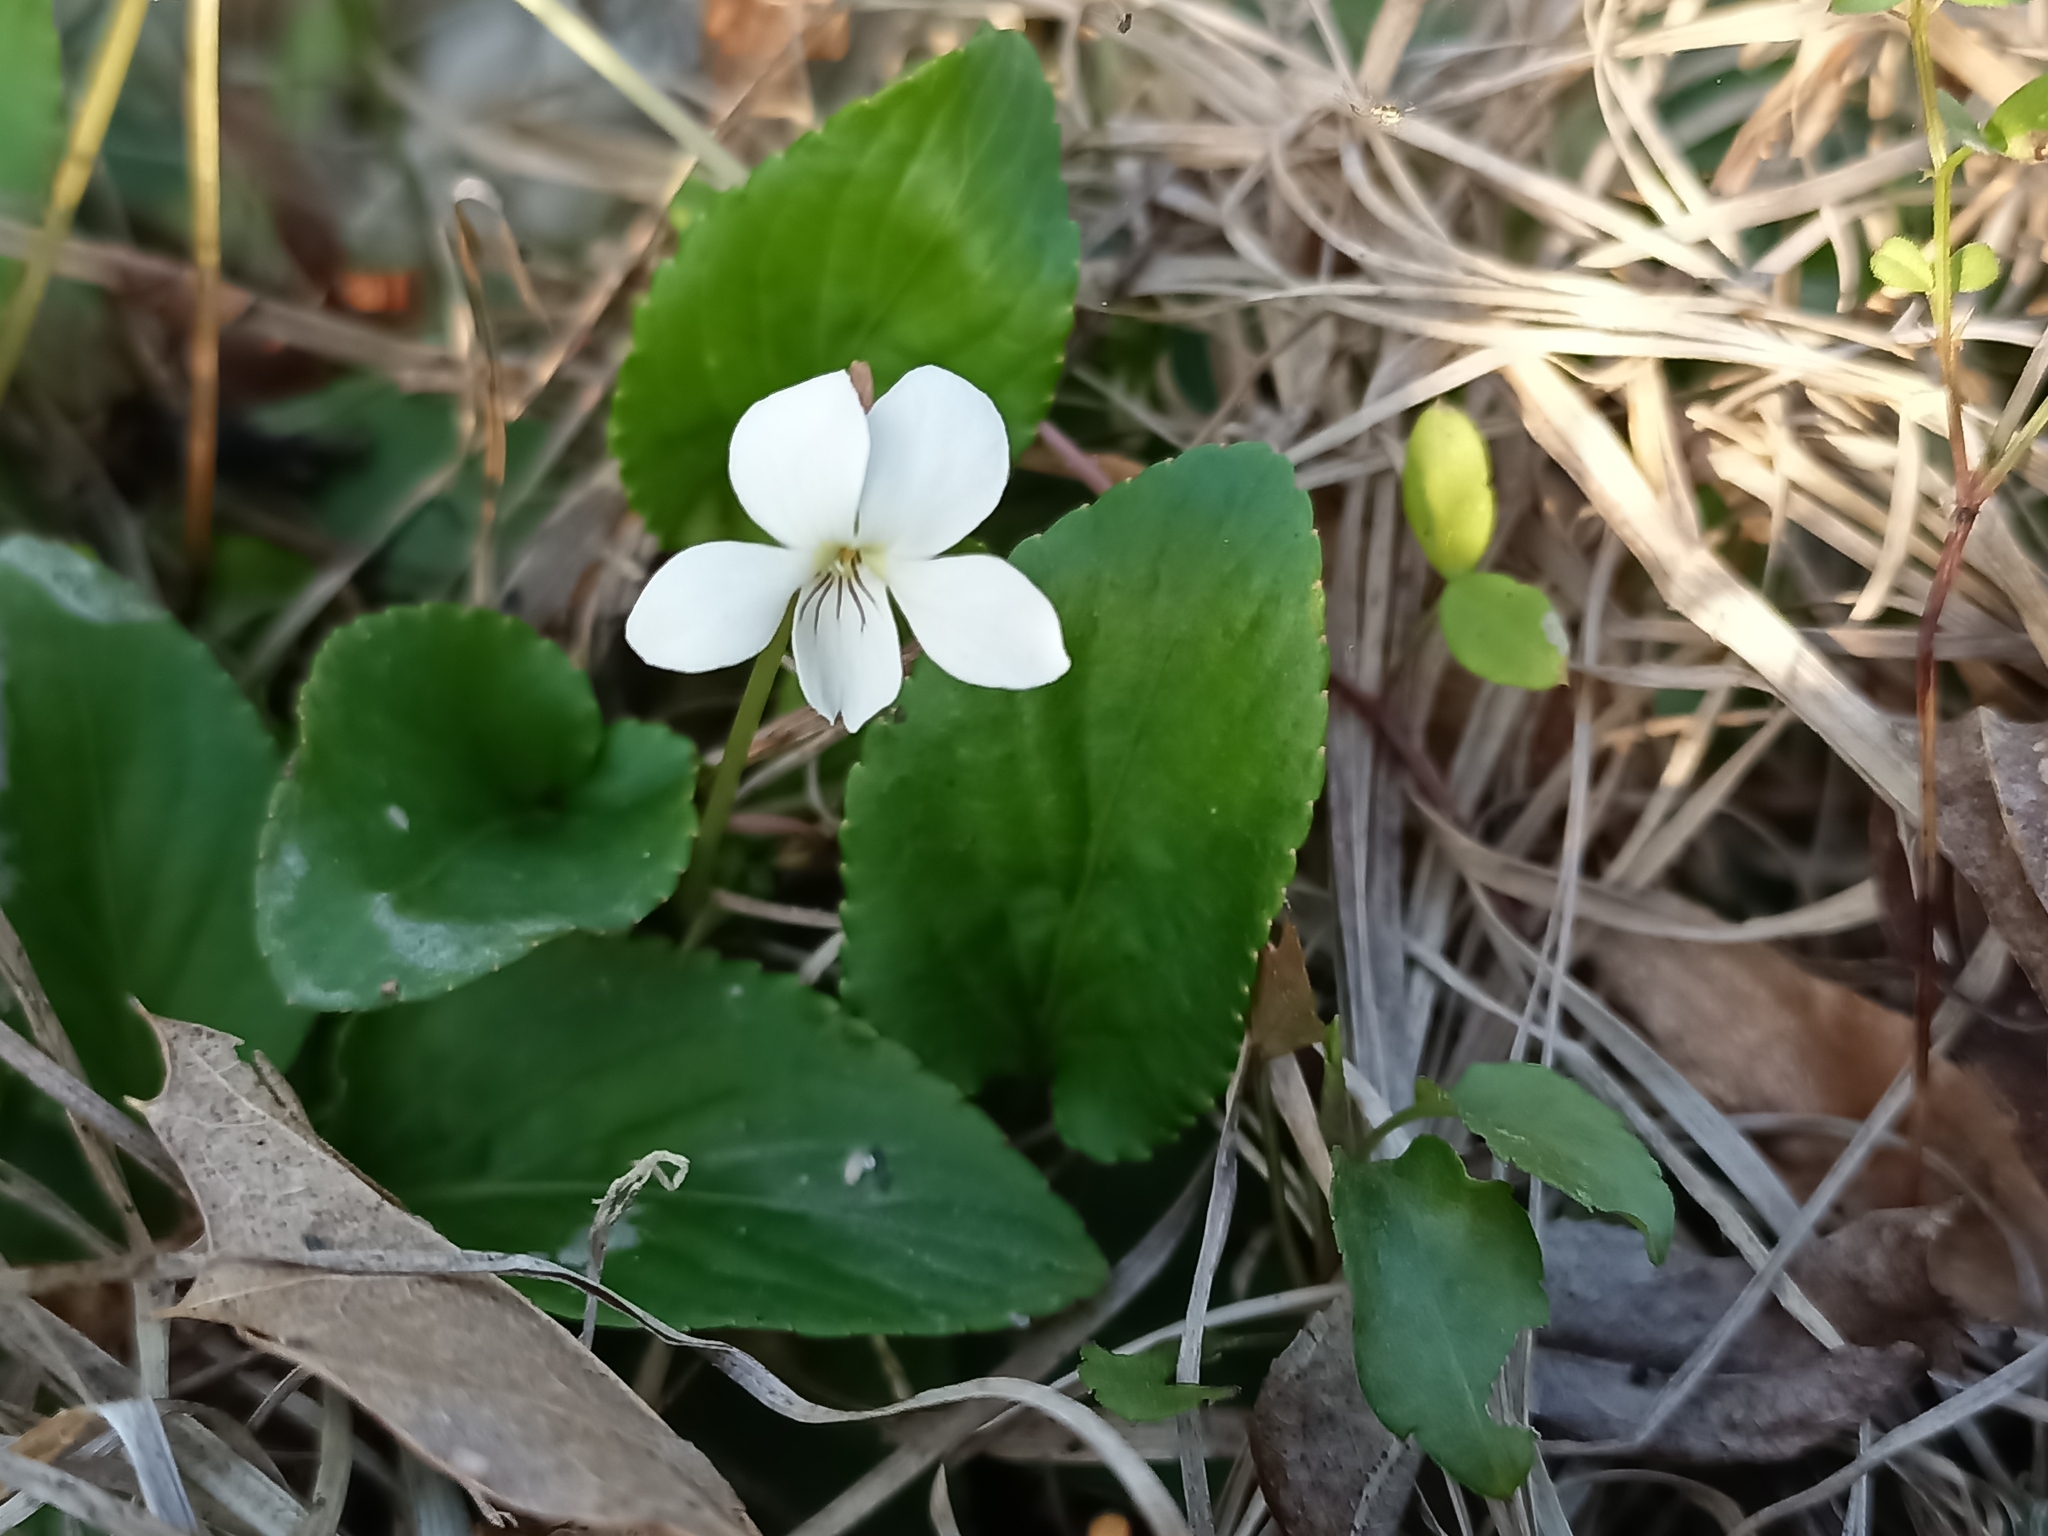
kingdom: Plantae
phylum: Tracheophyta
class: Magnoliopsida
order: Malpighiales
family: Violaceae
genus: Viola
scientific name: Viola primulifolia
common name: Primrose-leaf violet
